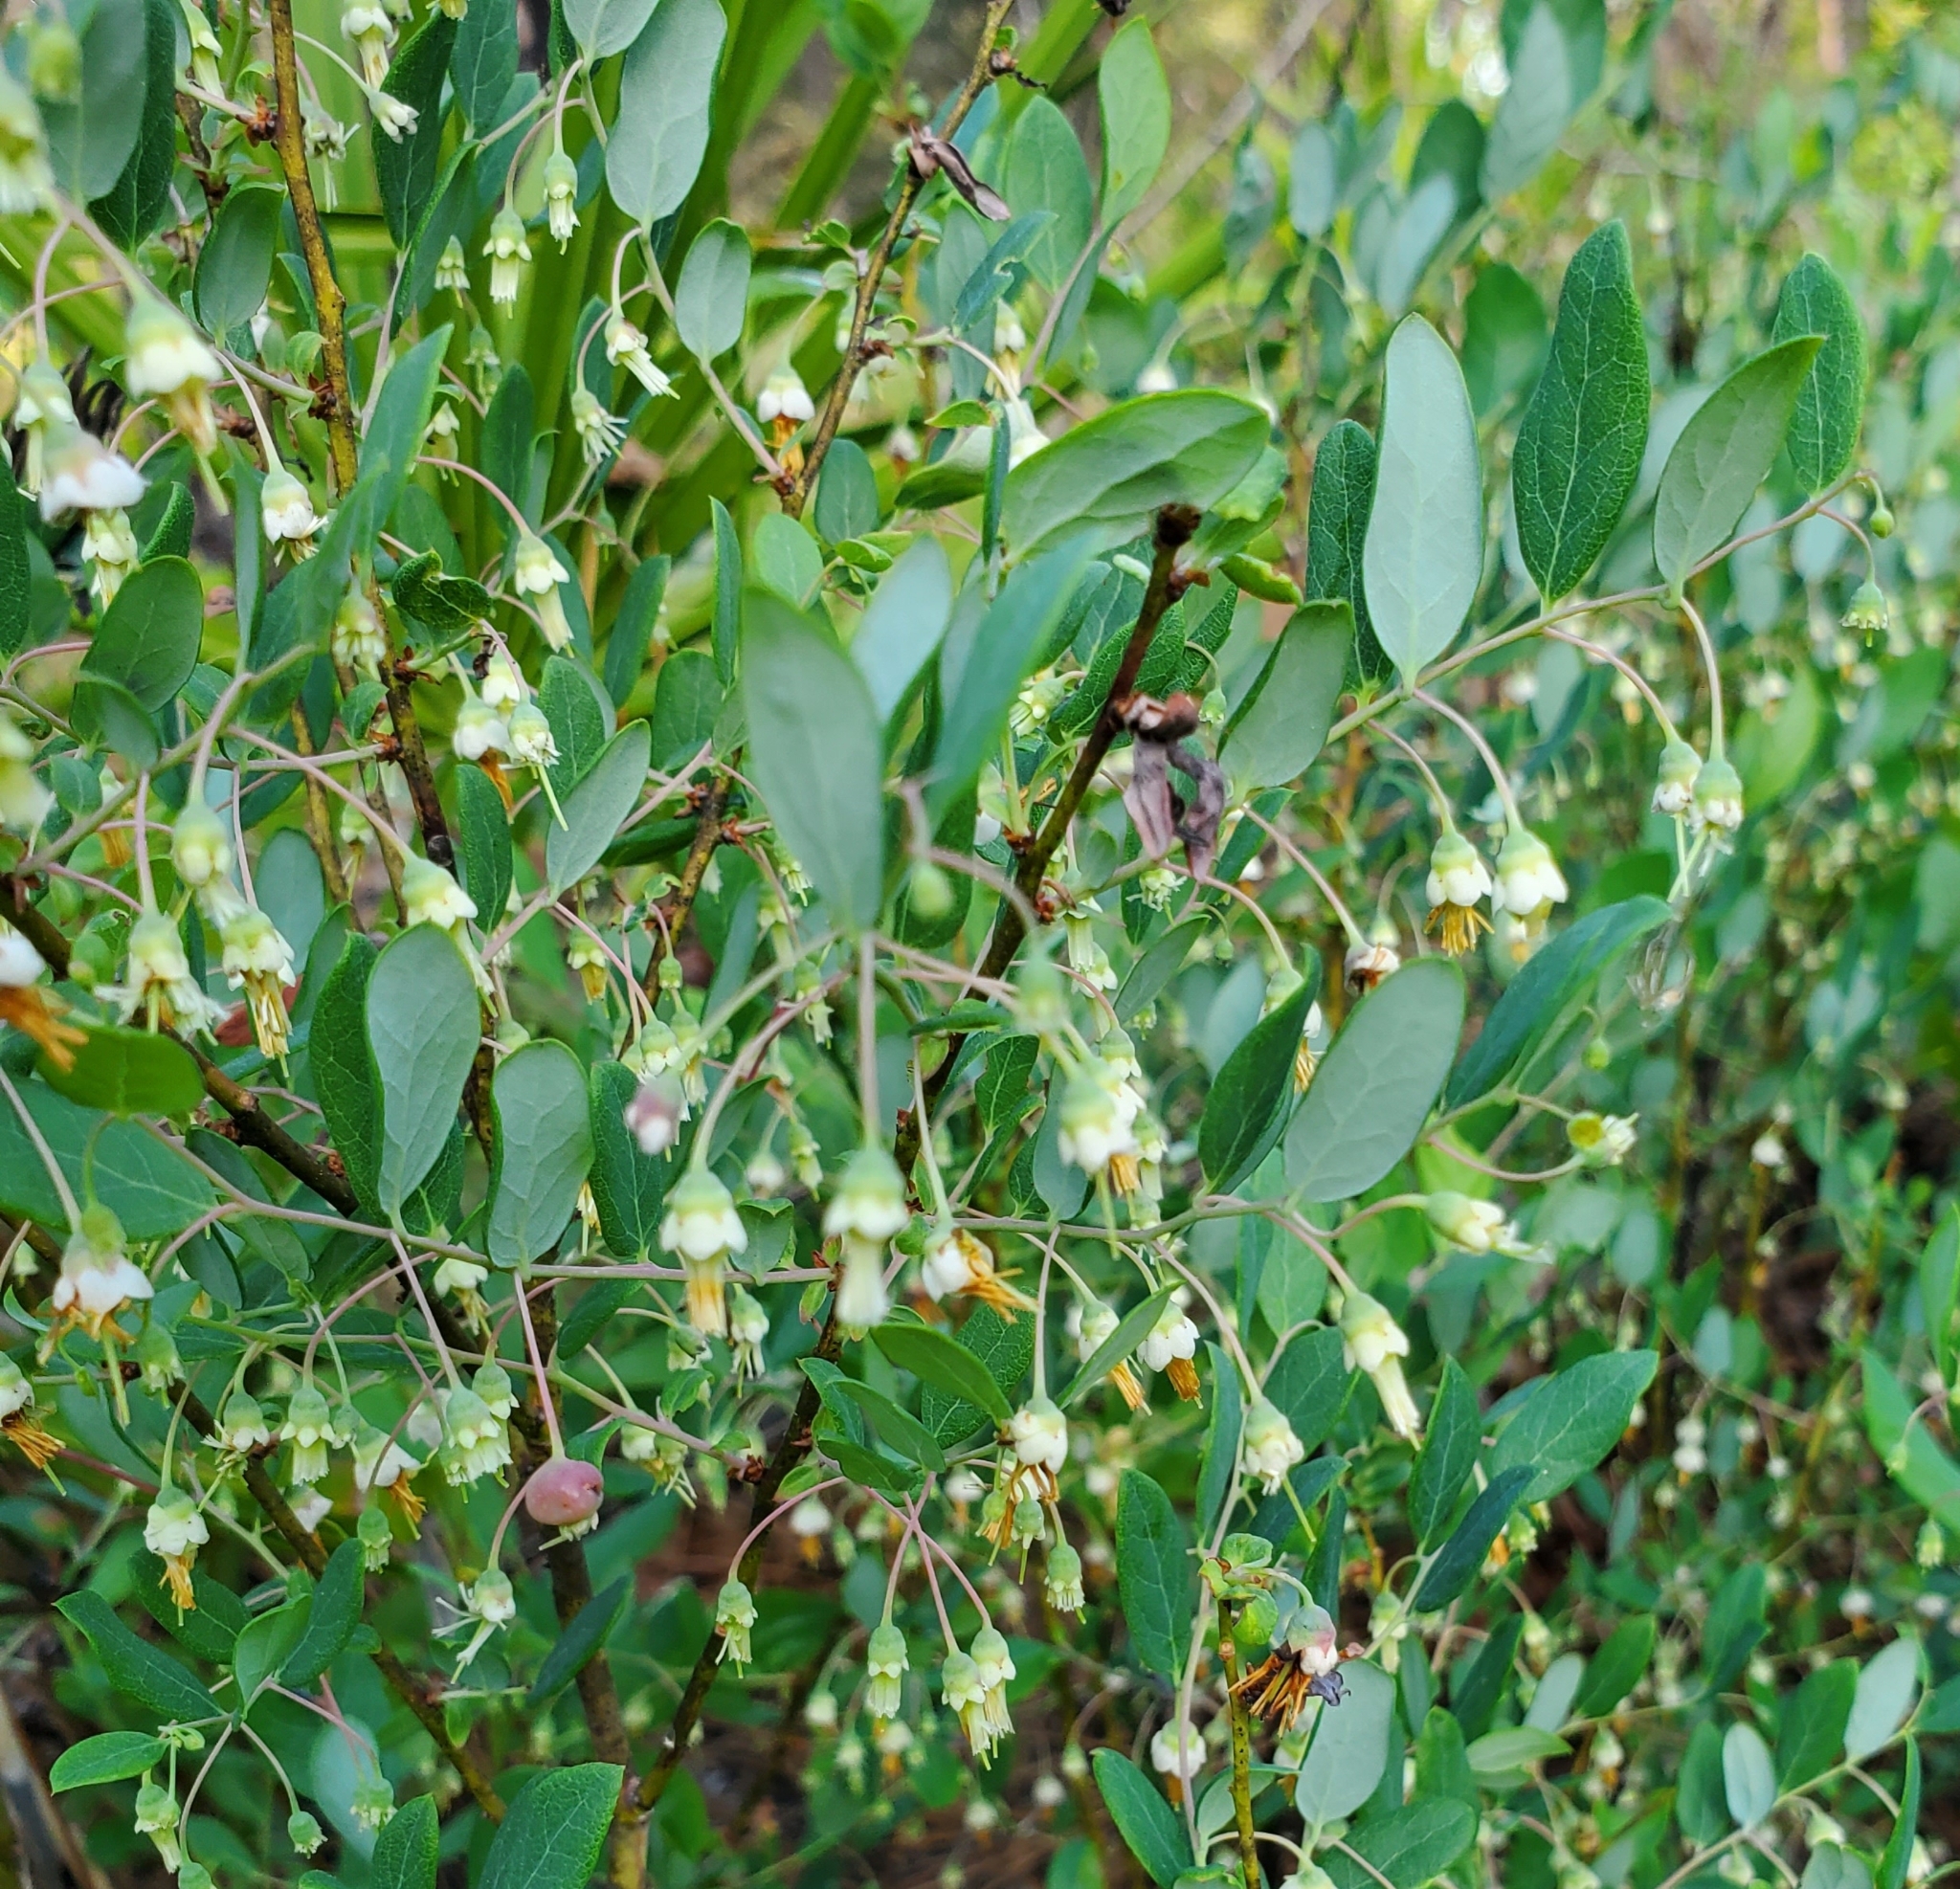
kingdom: Plantae
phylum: Tracheophyta
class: Magnoliopsida
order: Ericales
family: Ericaceae
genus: Vaccinium
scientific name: Vaccinium stamineum
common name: Deerberry
